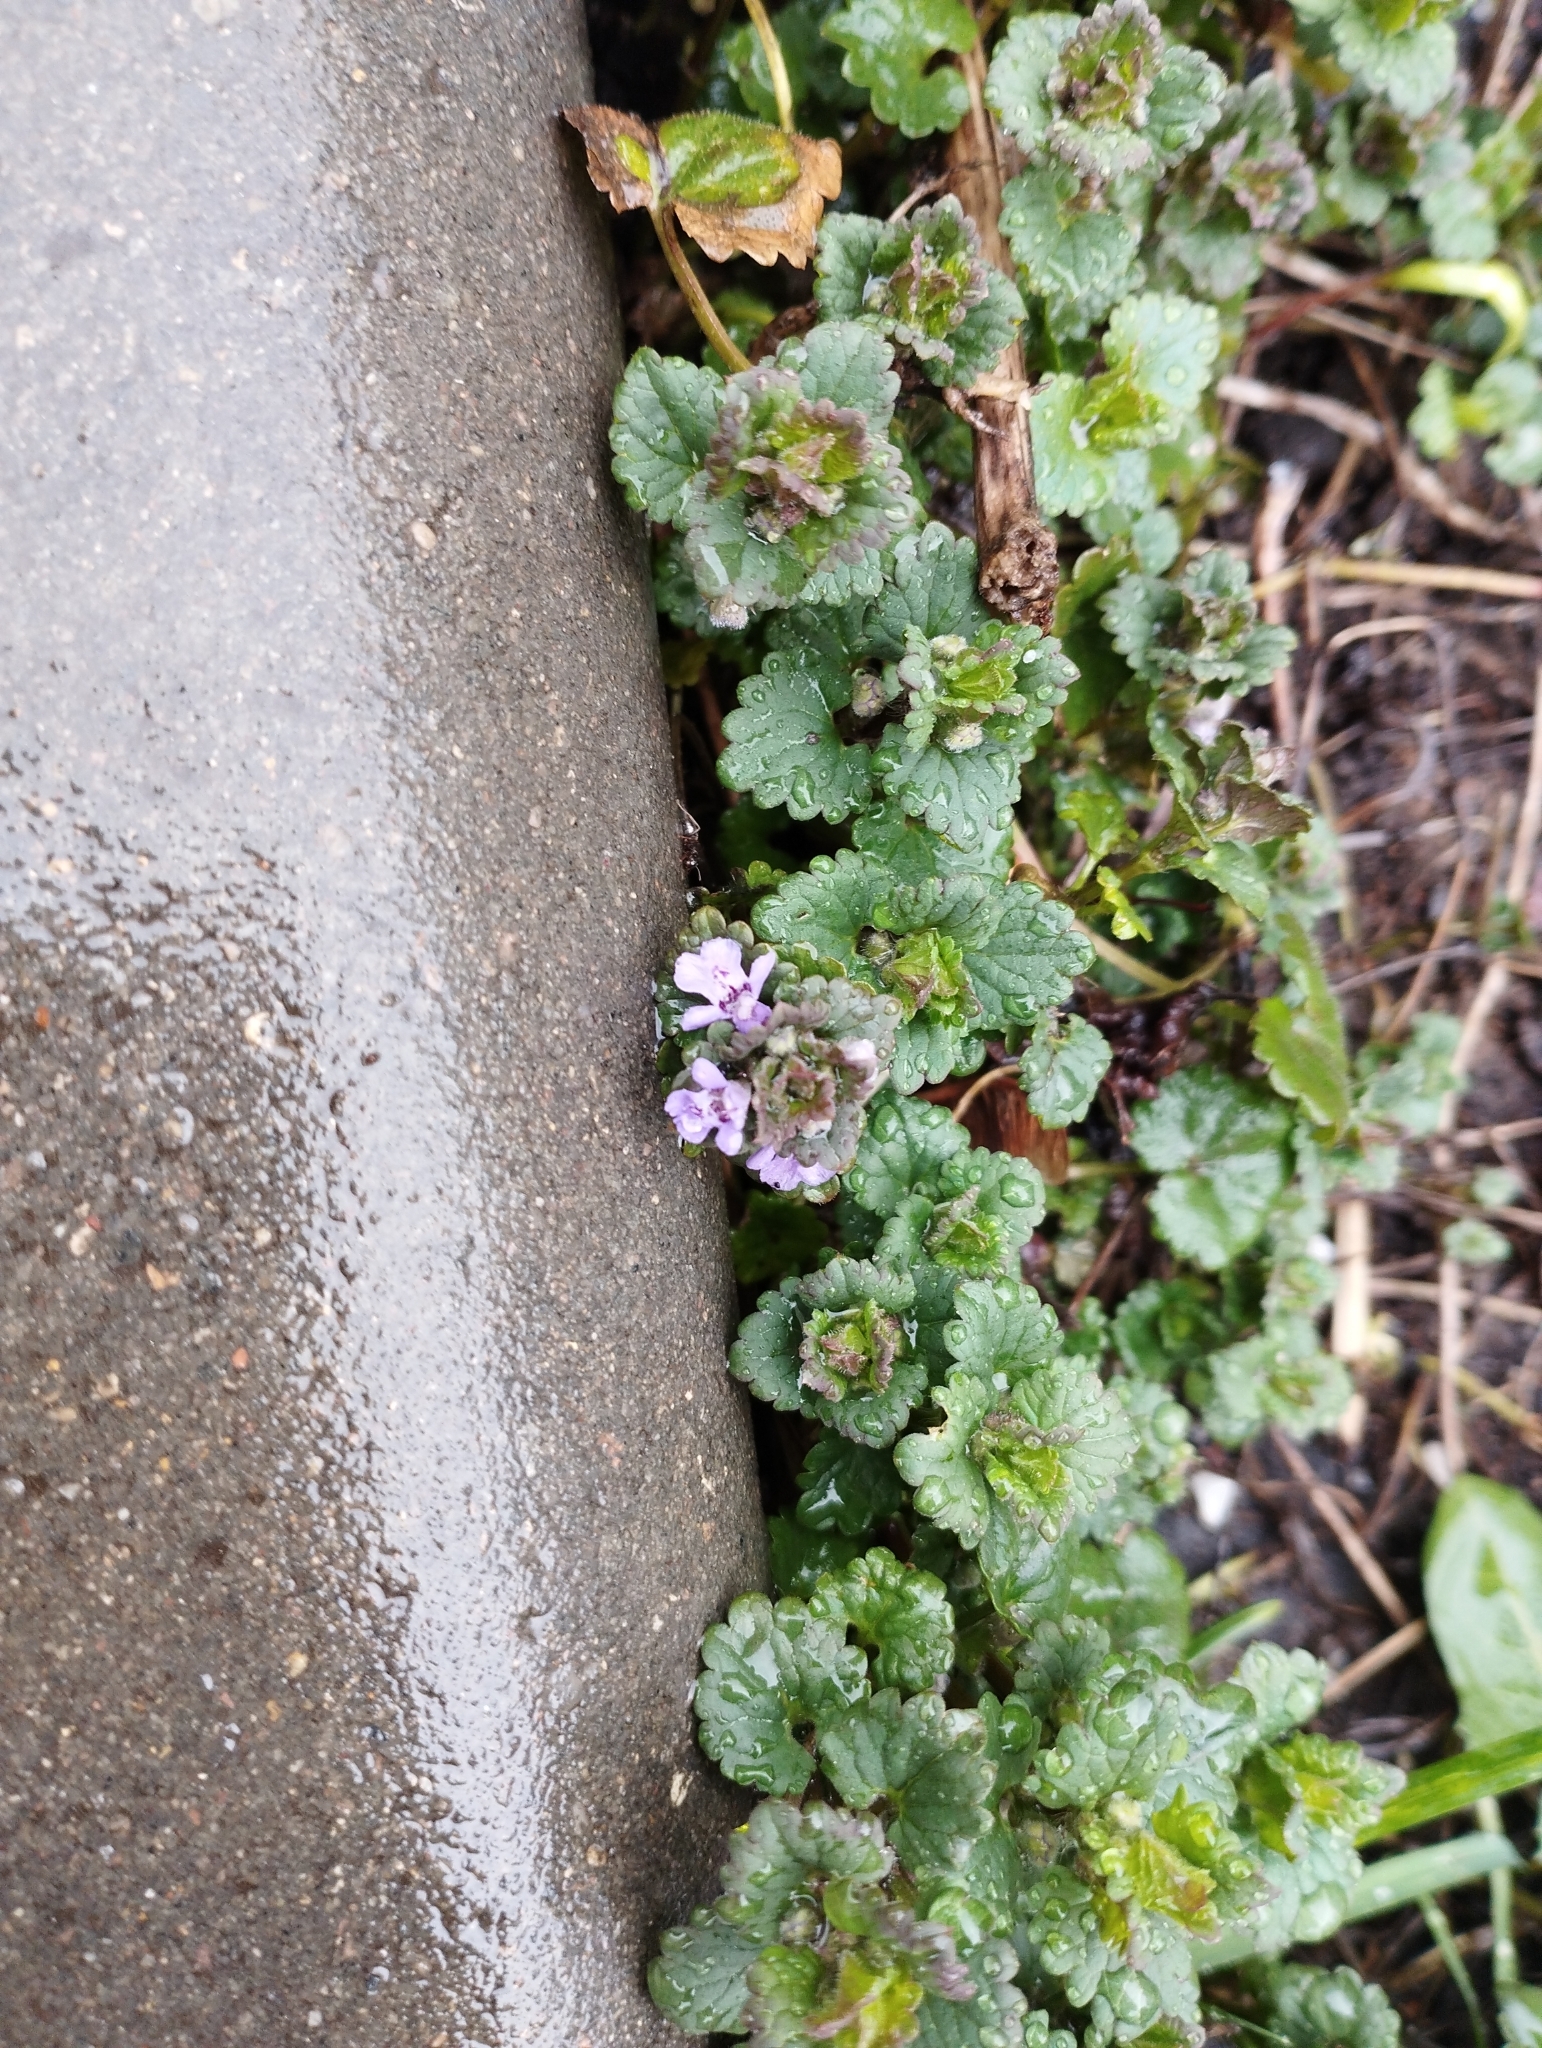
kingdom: Plantae
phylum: Tracheophyta
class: Magnoliopsida
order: Lamiales
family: Lamiaceae
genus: Glechoma
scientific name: Glechoma hederacea
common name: Ground ivy
